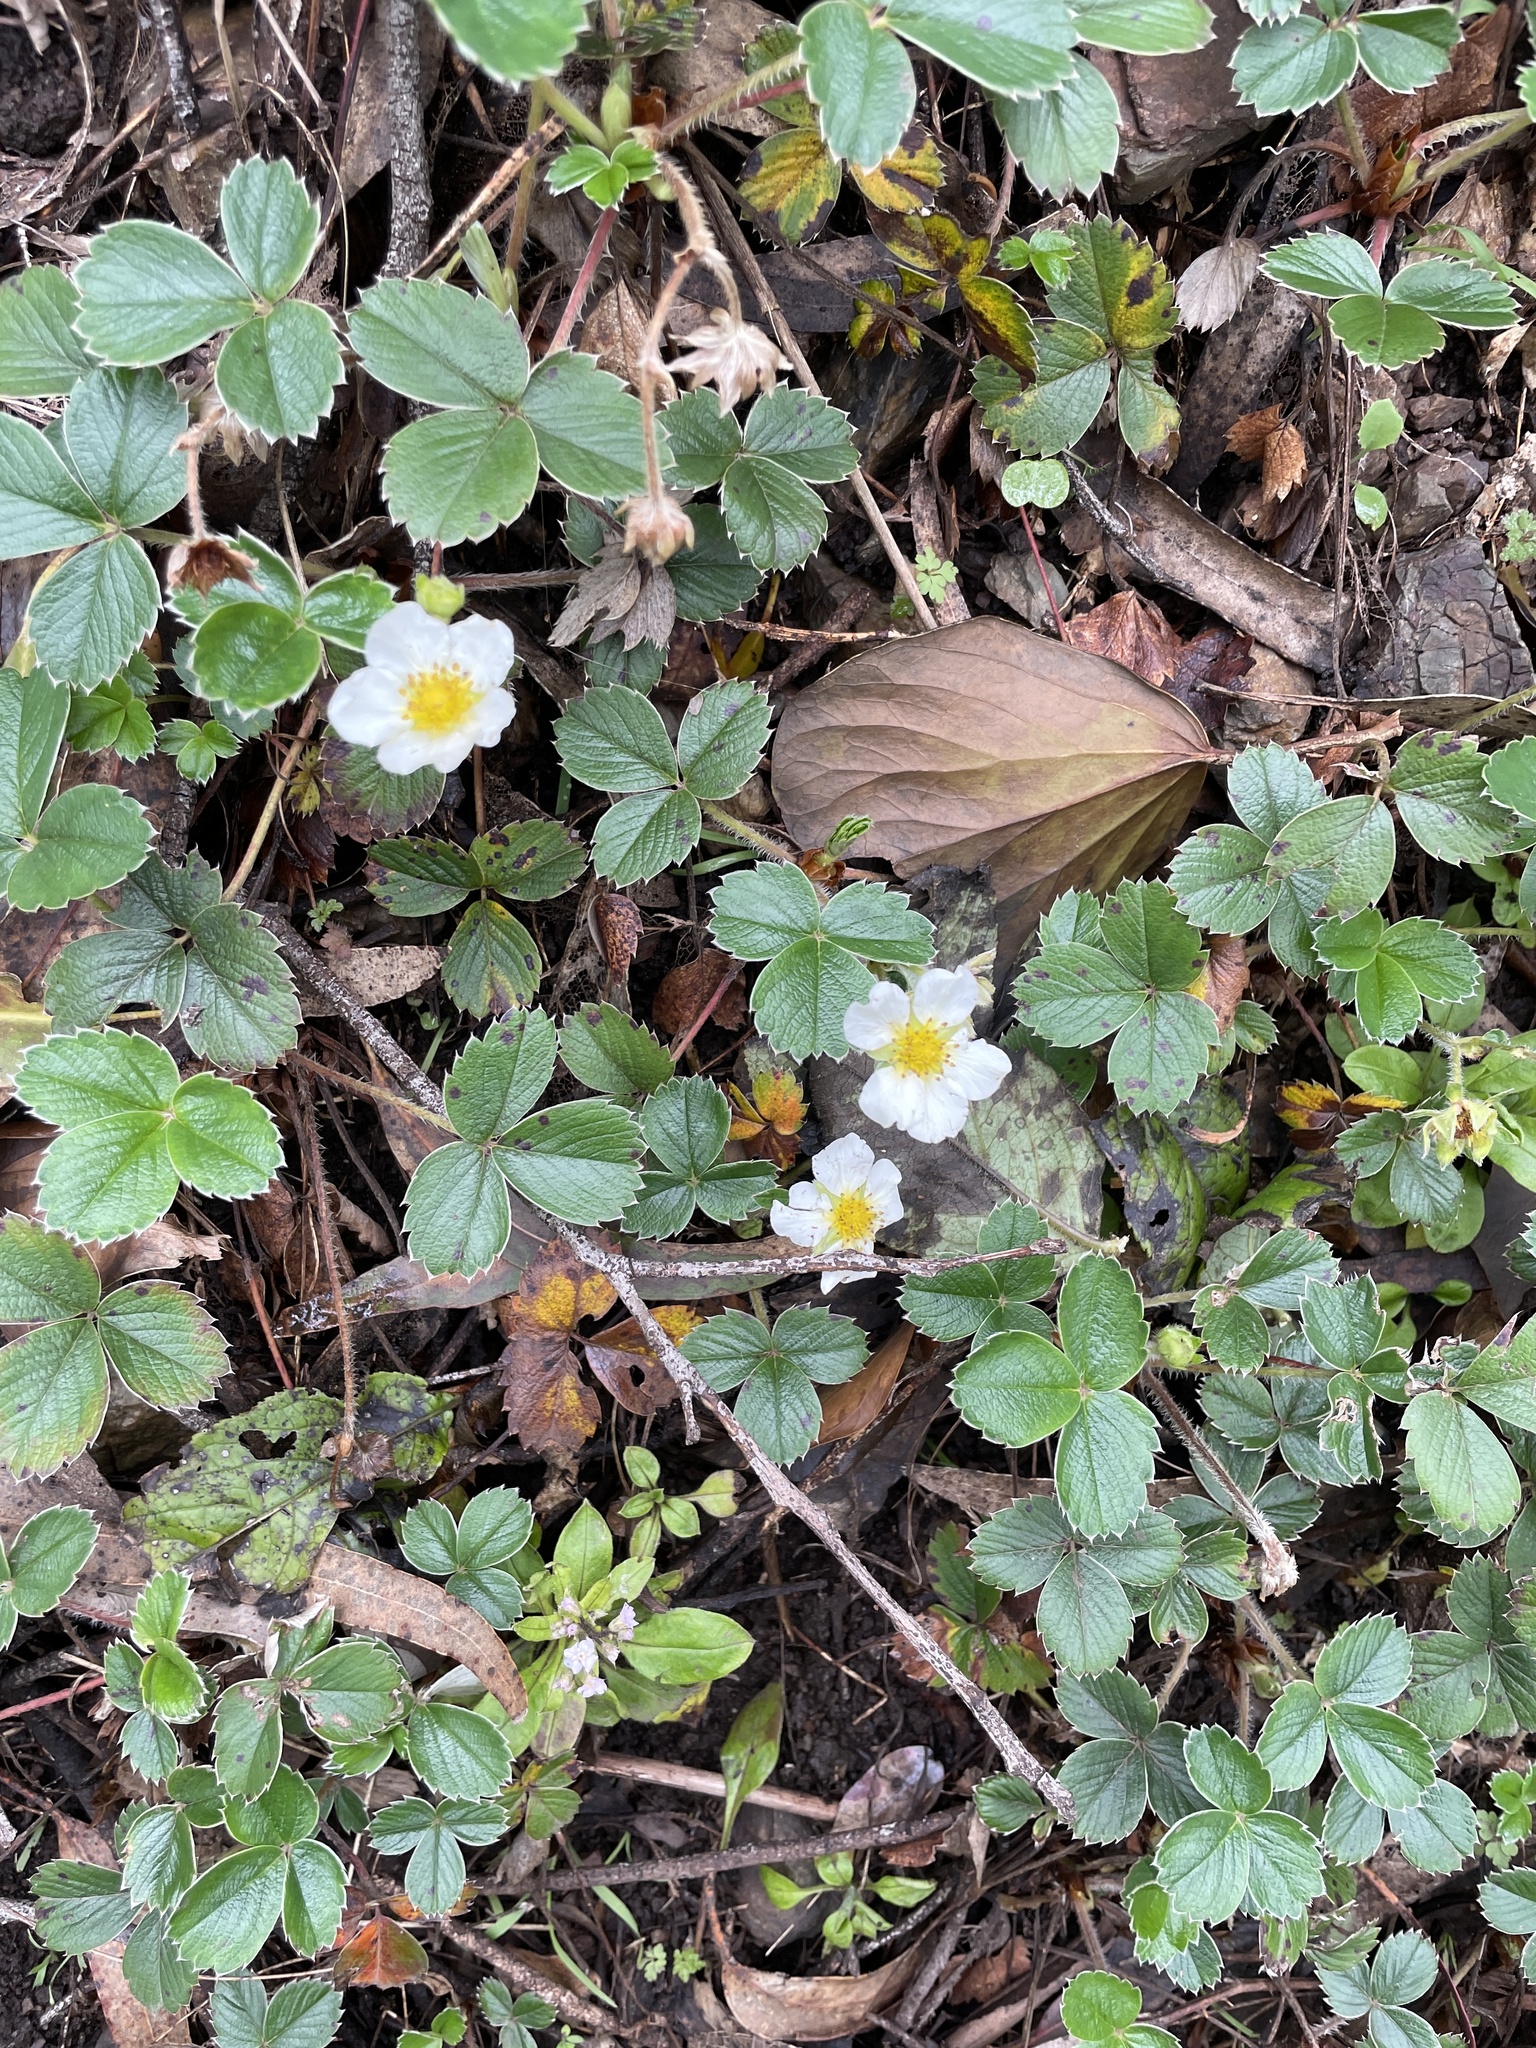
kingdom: Plantae
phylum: Tracheophyta
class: Magnoliopsida
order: Rosales
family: Rosaceae
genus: Fragaria
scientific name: Fragaria chiloensis
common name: Beach strawberry
